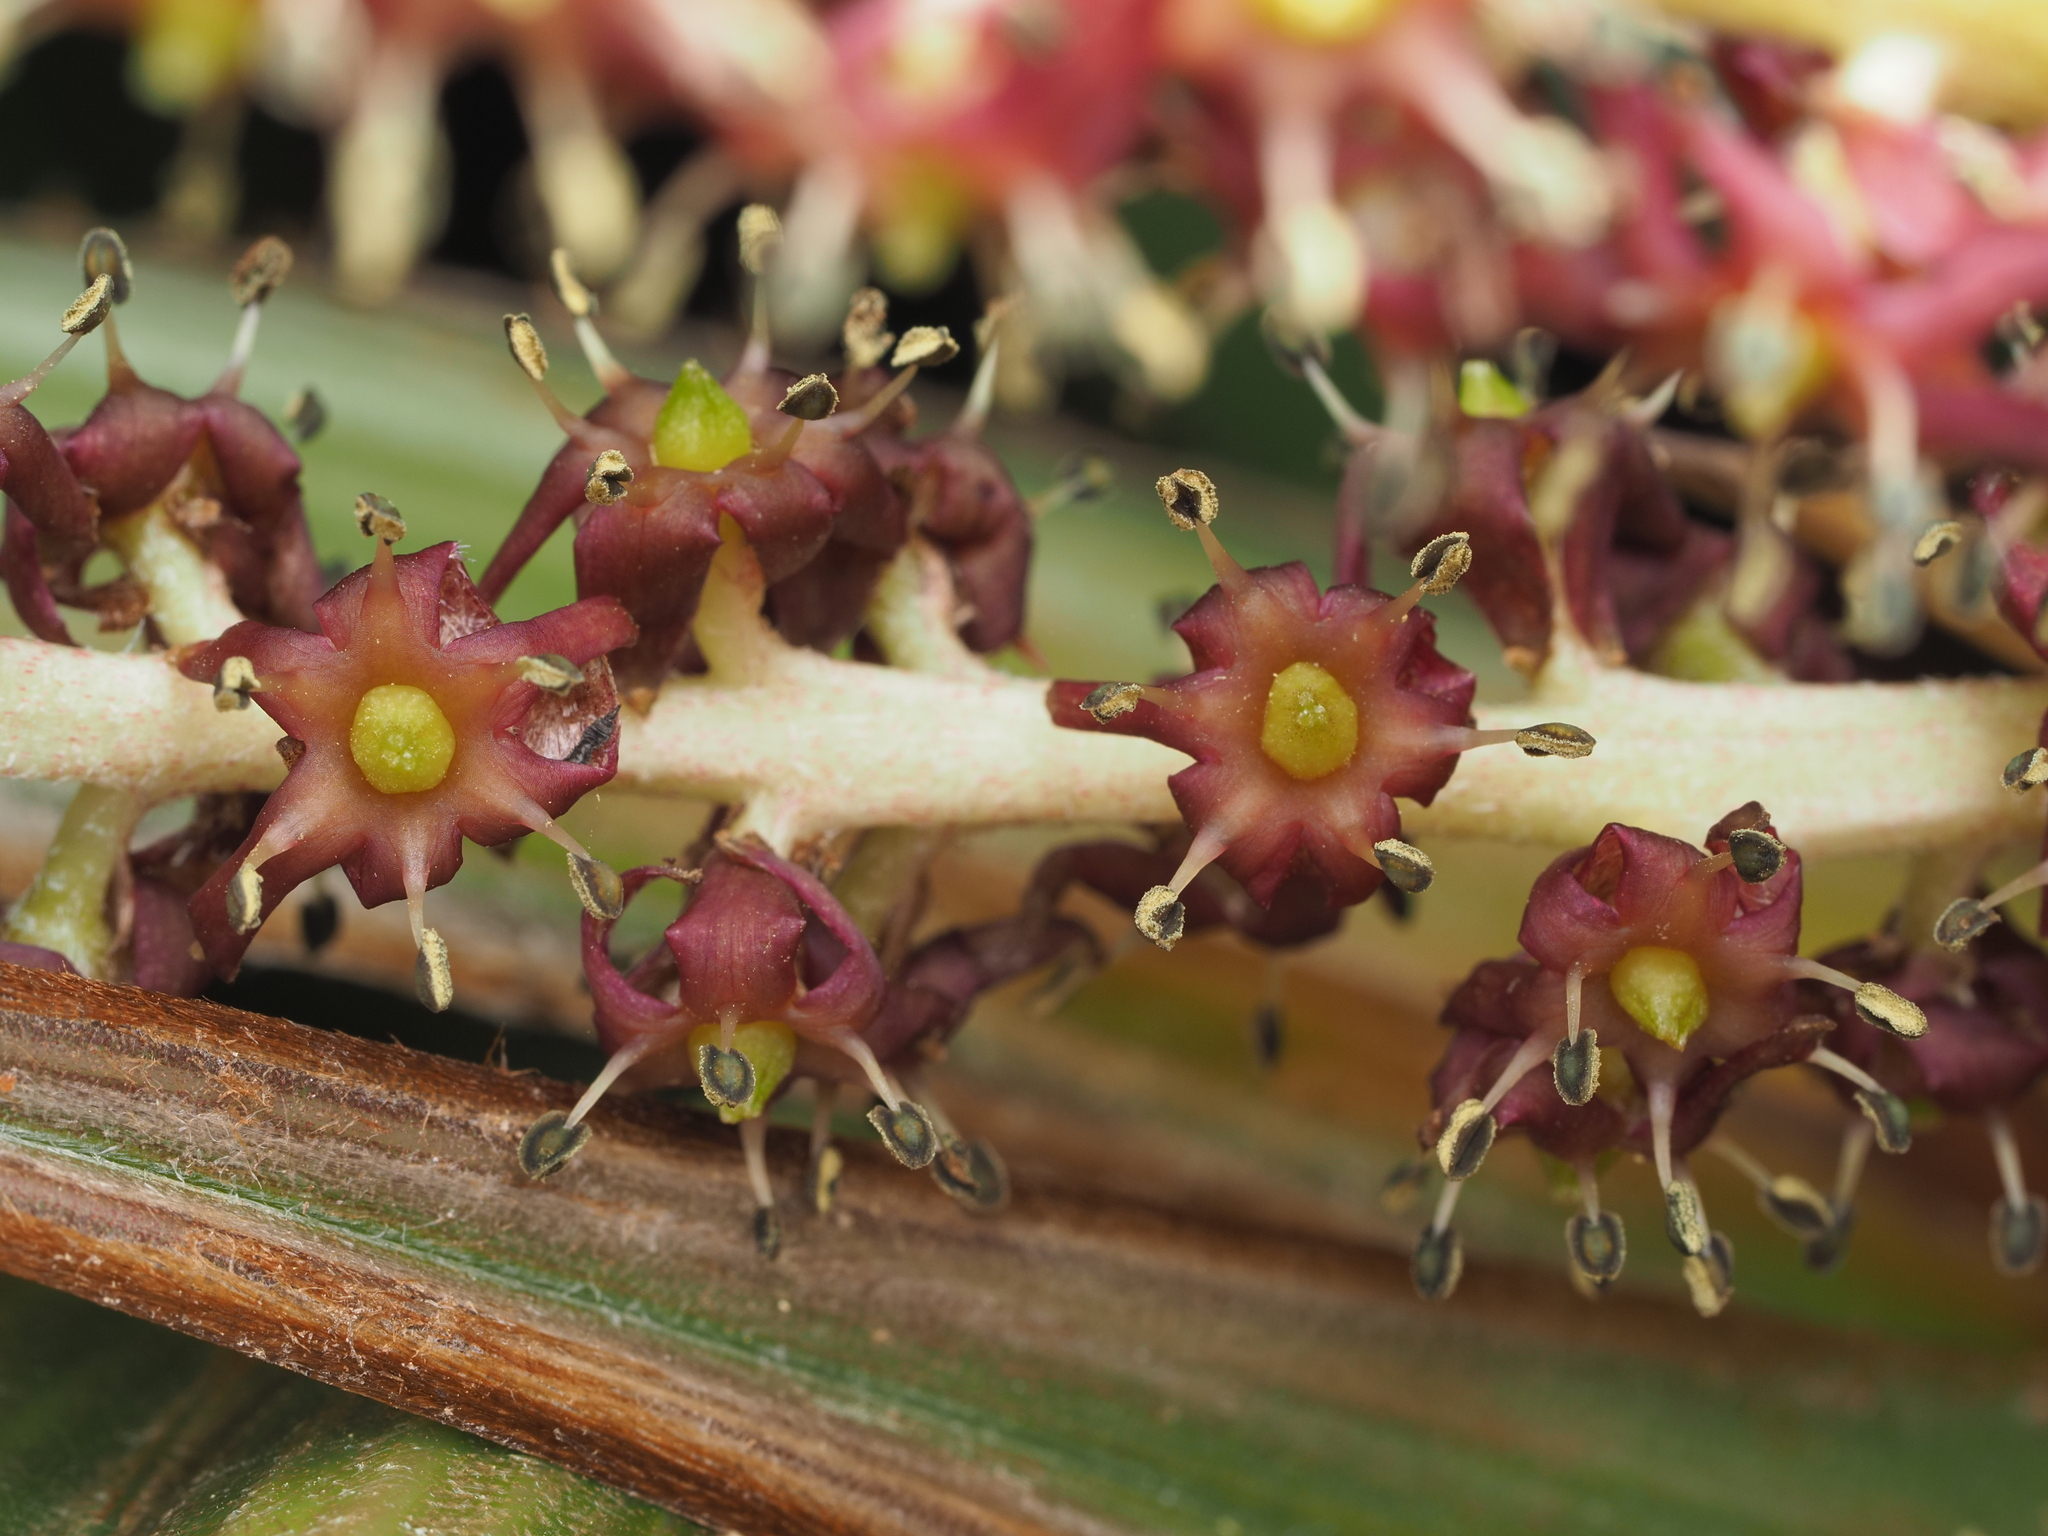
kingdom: Plantae
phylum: Tracheophyta
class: Liliopsida
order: Asparagales
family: Asteliaceae
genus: Astelia
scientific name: Astelia nervosa
